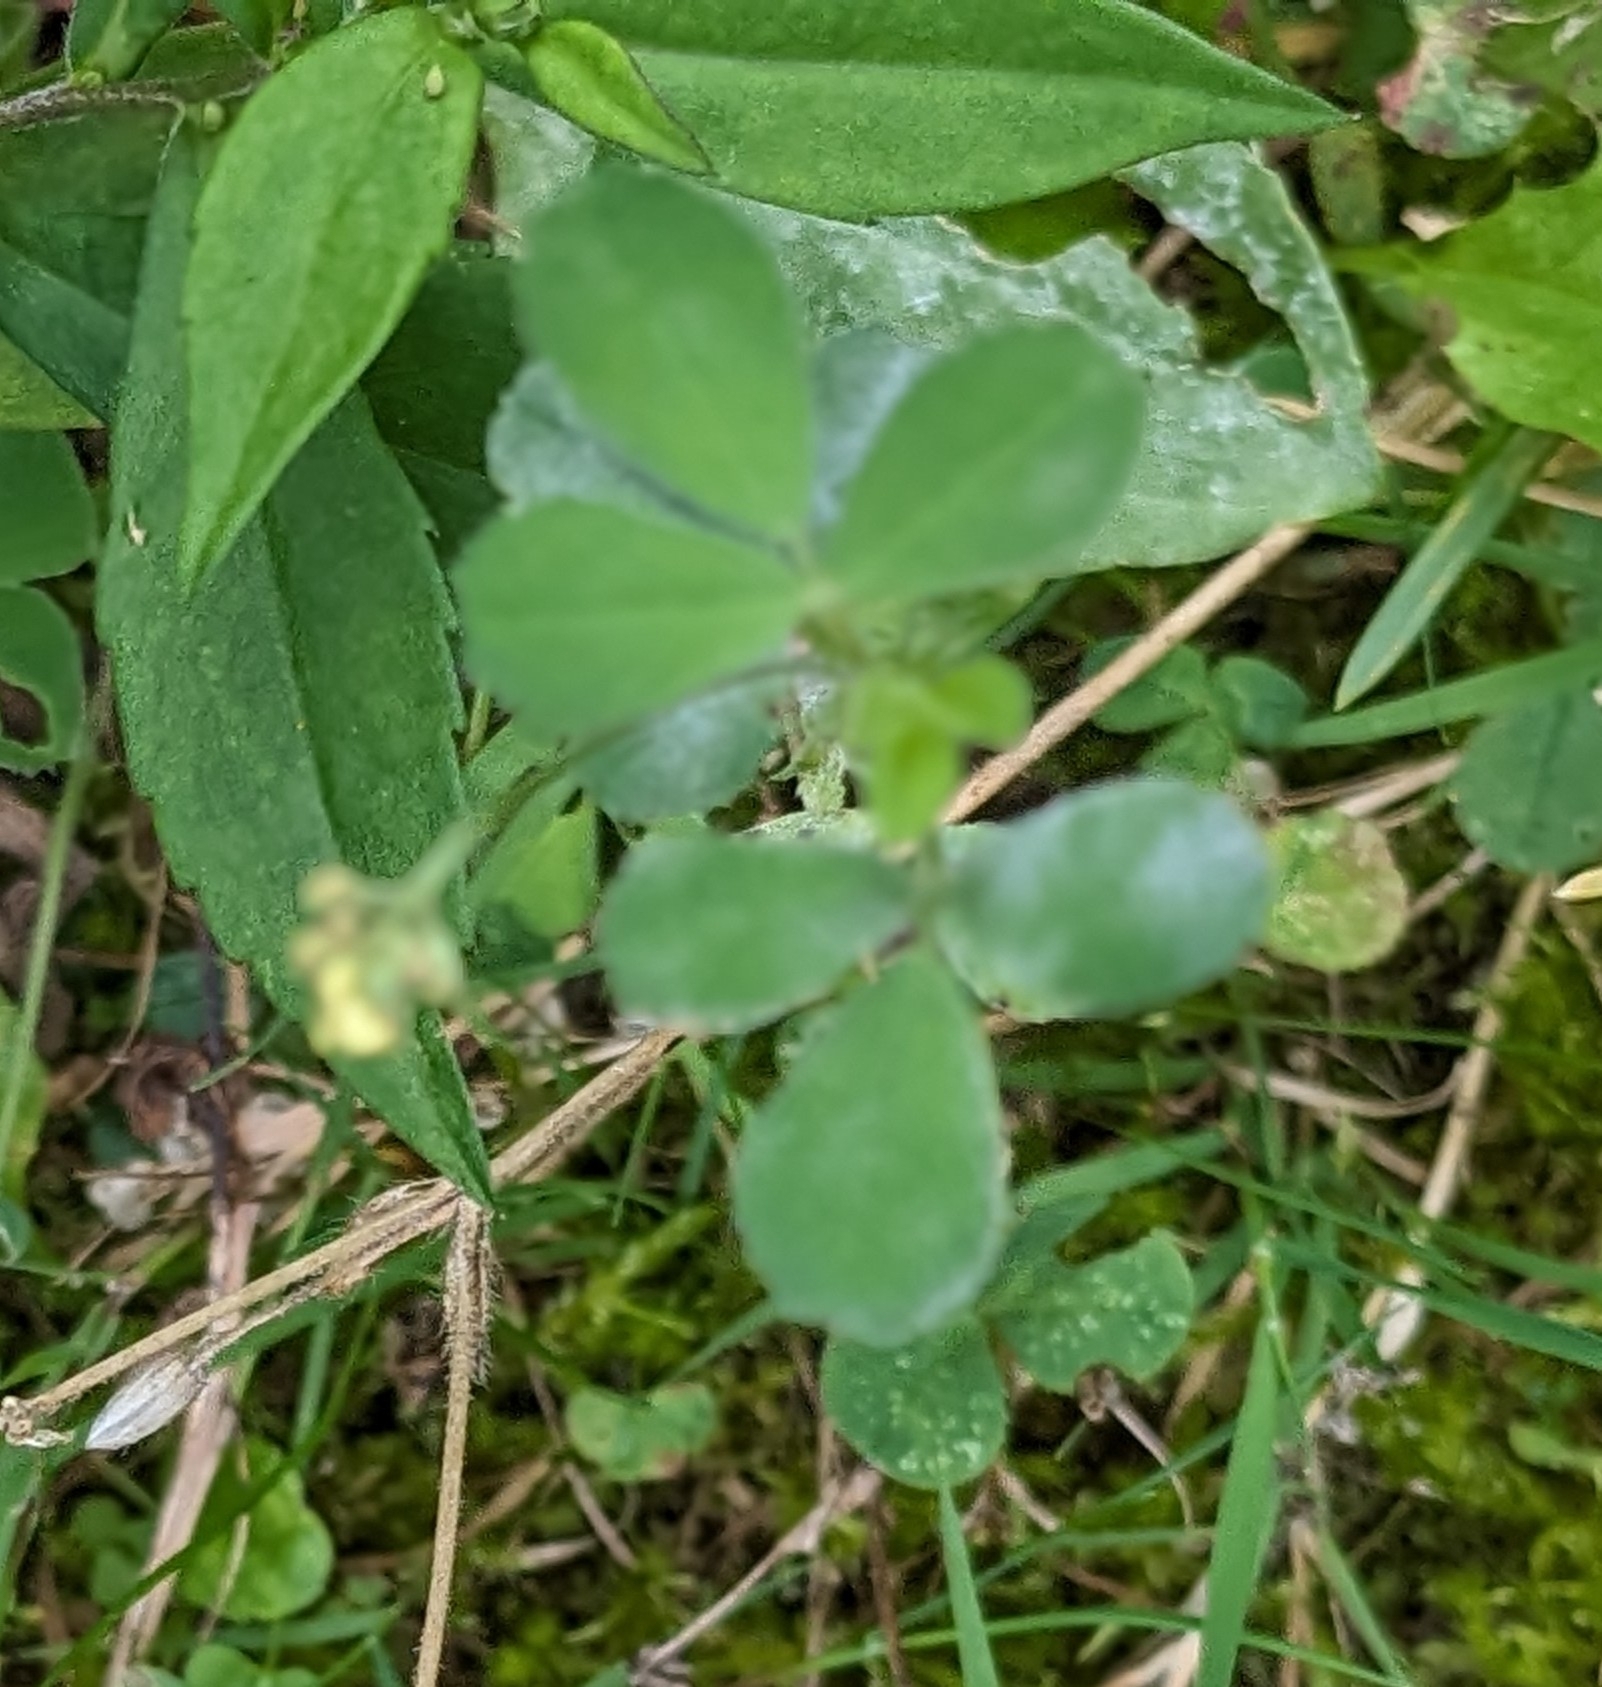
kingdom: Plantae
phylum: Tracheophyta
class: Magnoliopsida
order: Fabales
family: Fabaceae
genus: Medicago
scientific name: Medicago lupulina
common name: Black medick
